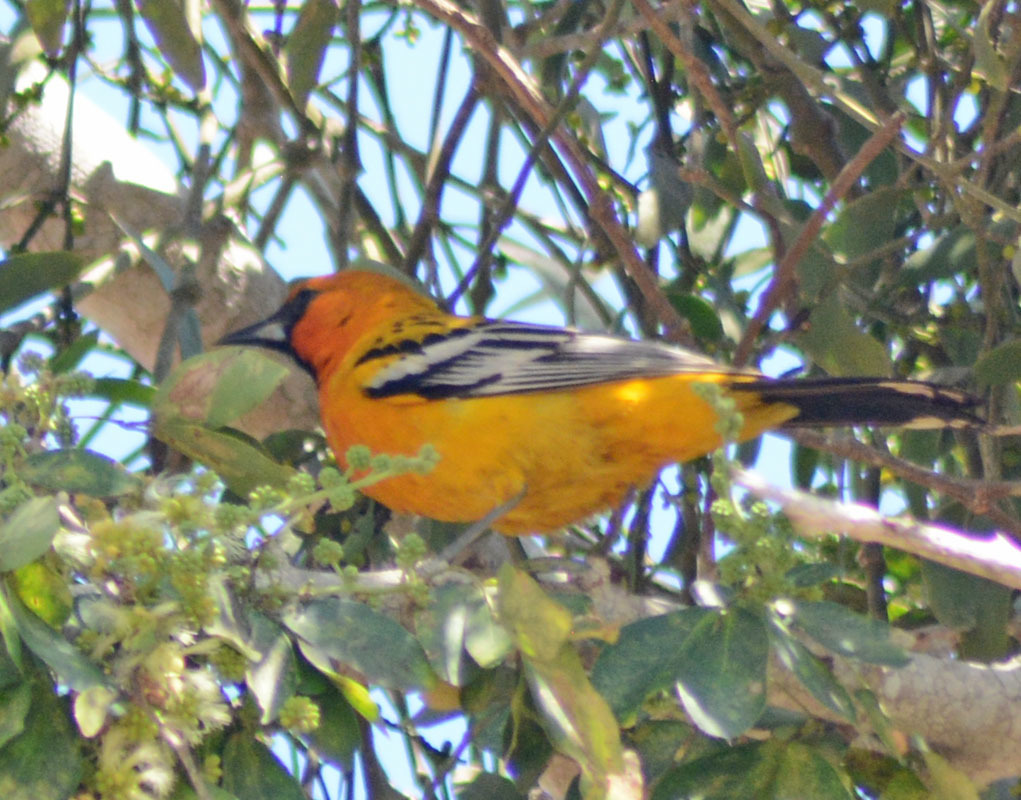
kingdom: Animalia
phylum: Chordata
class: Aves
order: Passeriformes
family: Icteridae
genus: Icterus
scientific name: Icterus pustulatus
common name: Streak-backed oriole
